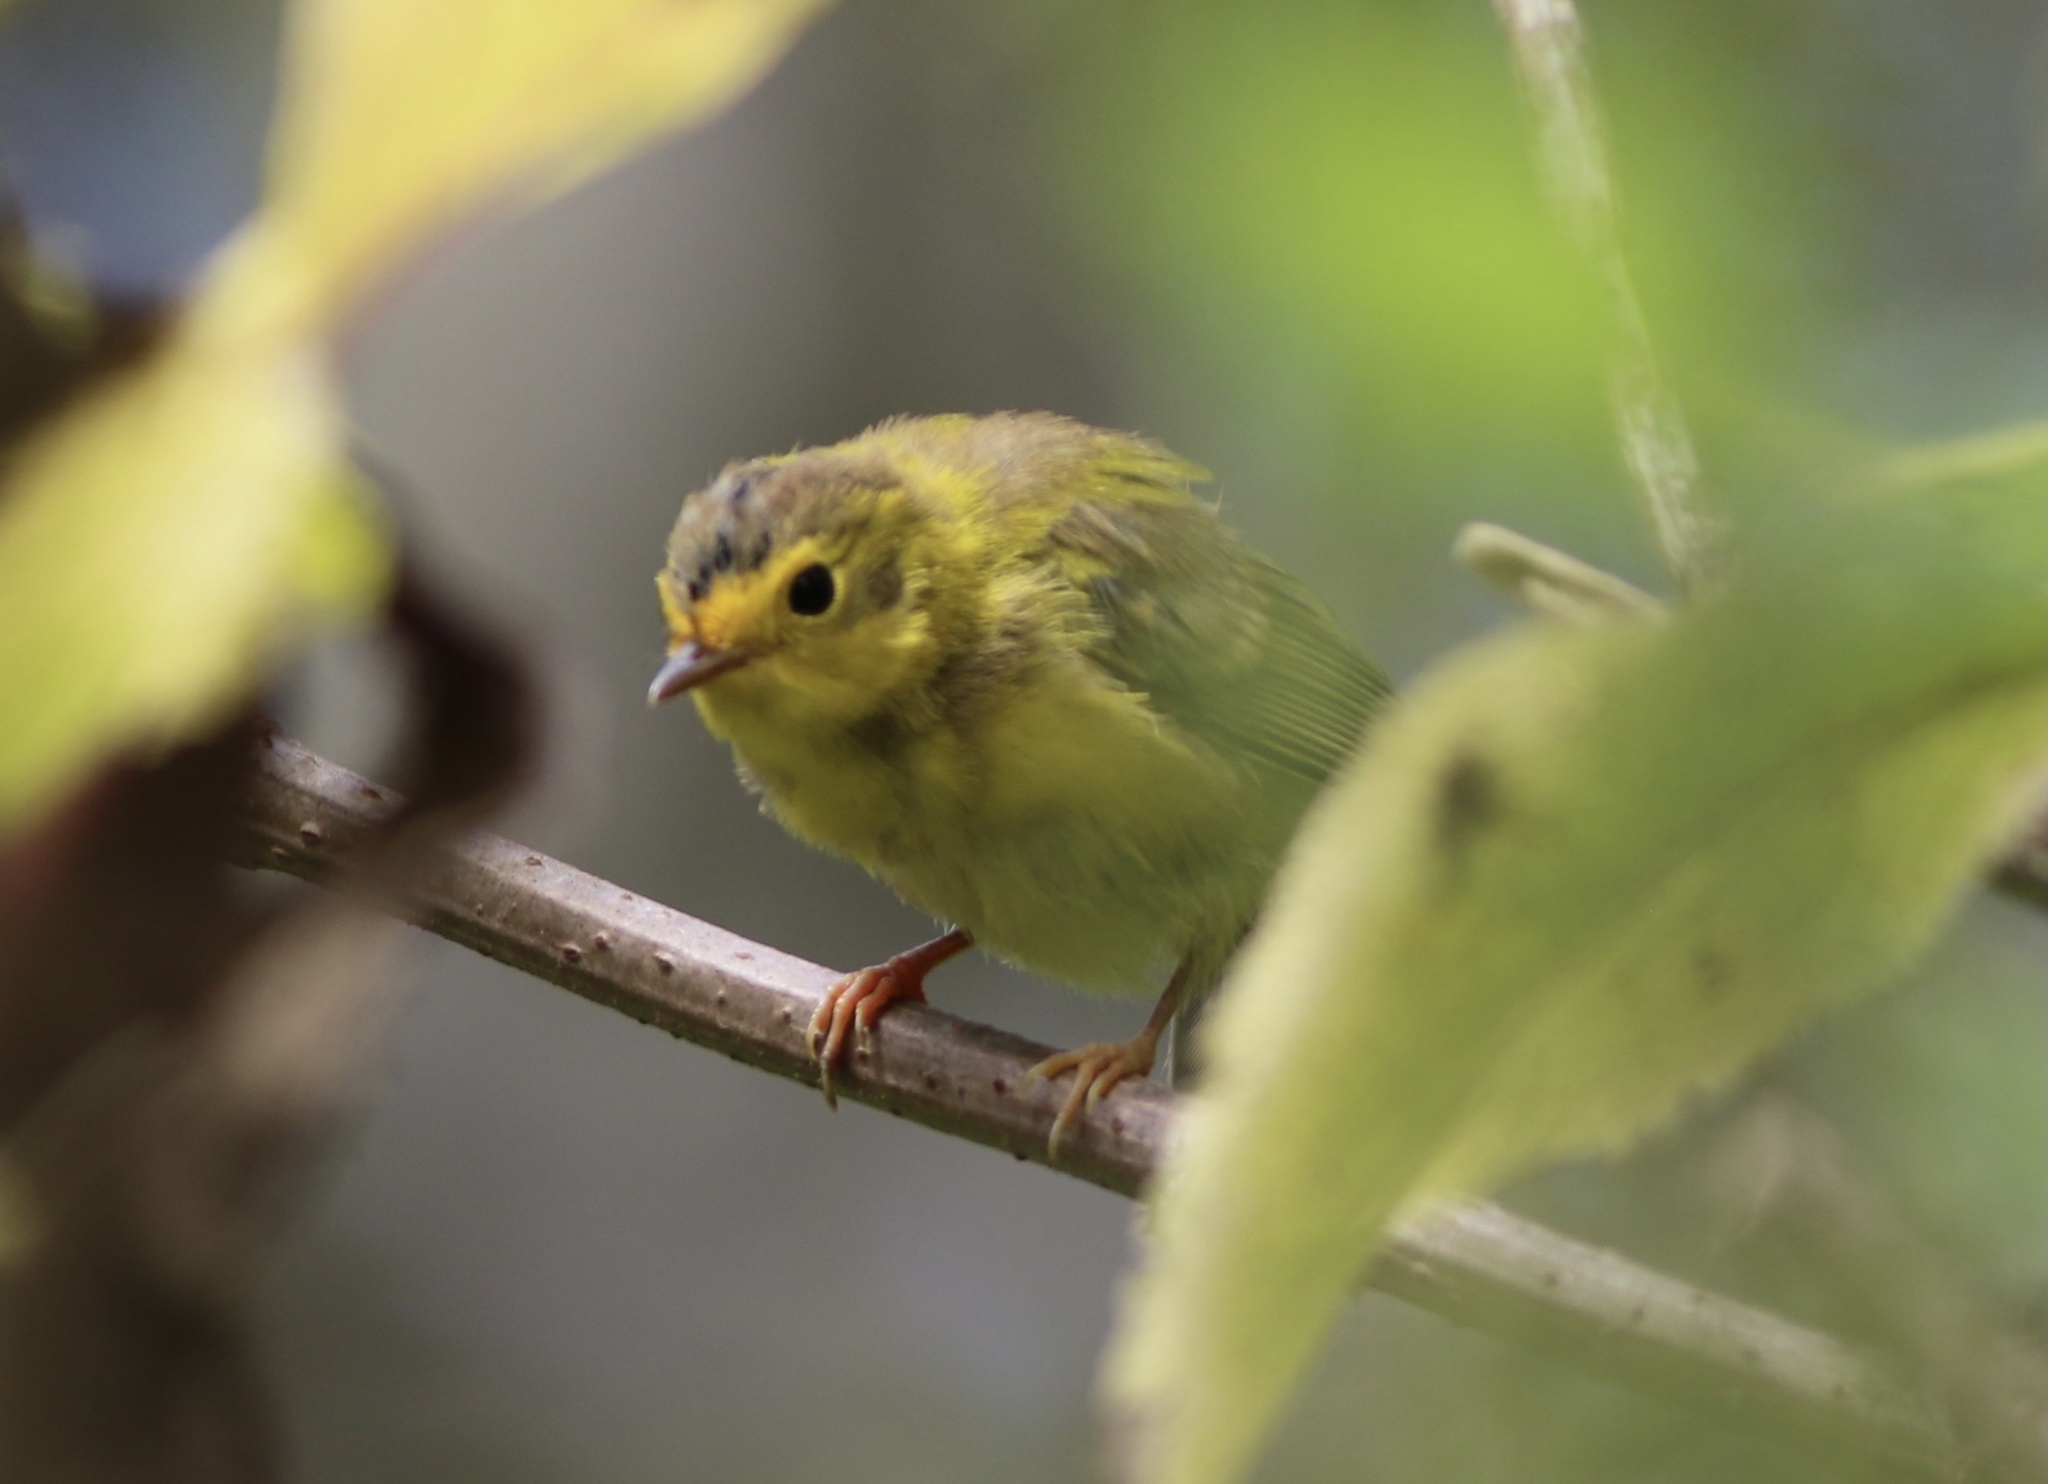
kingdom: Animalia
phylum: Chordata
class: Aves
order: Passeriformes
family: Parulidae
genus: Cardellina
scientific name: Cardellina pusilla
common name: Wilson's warbler
